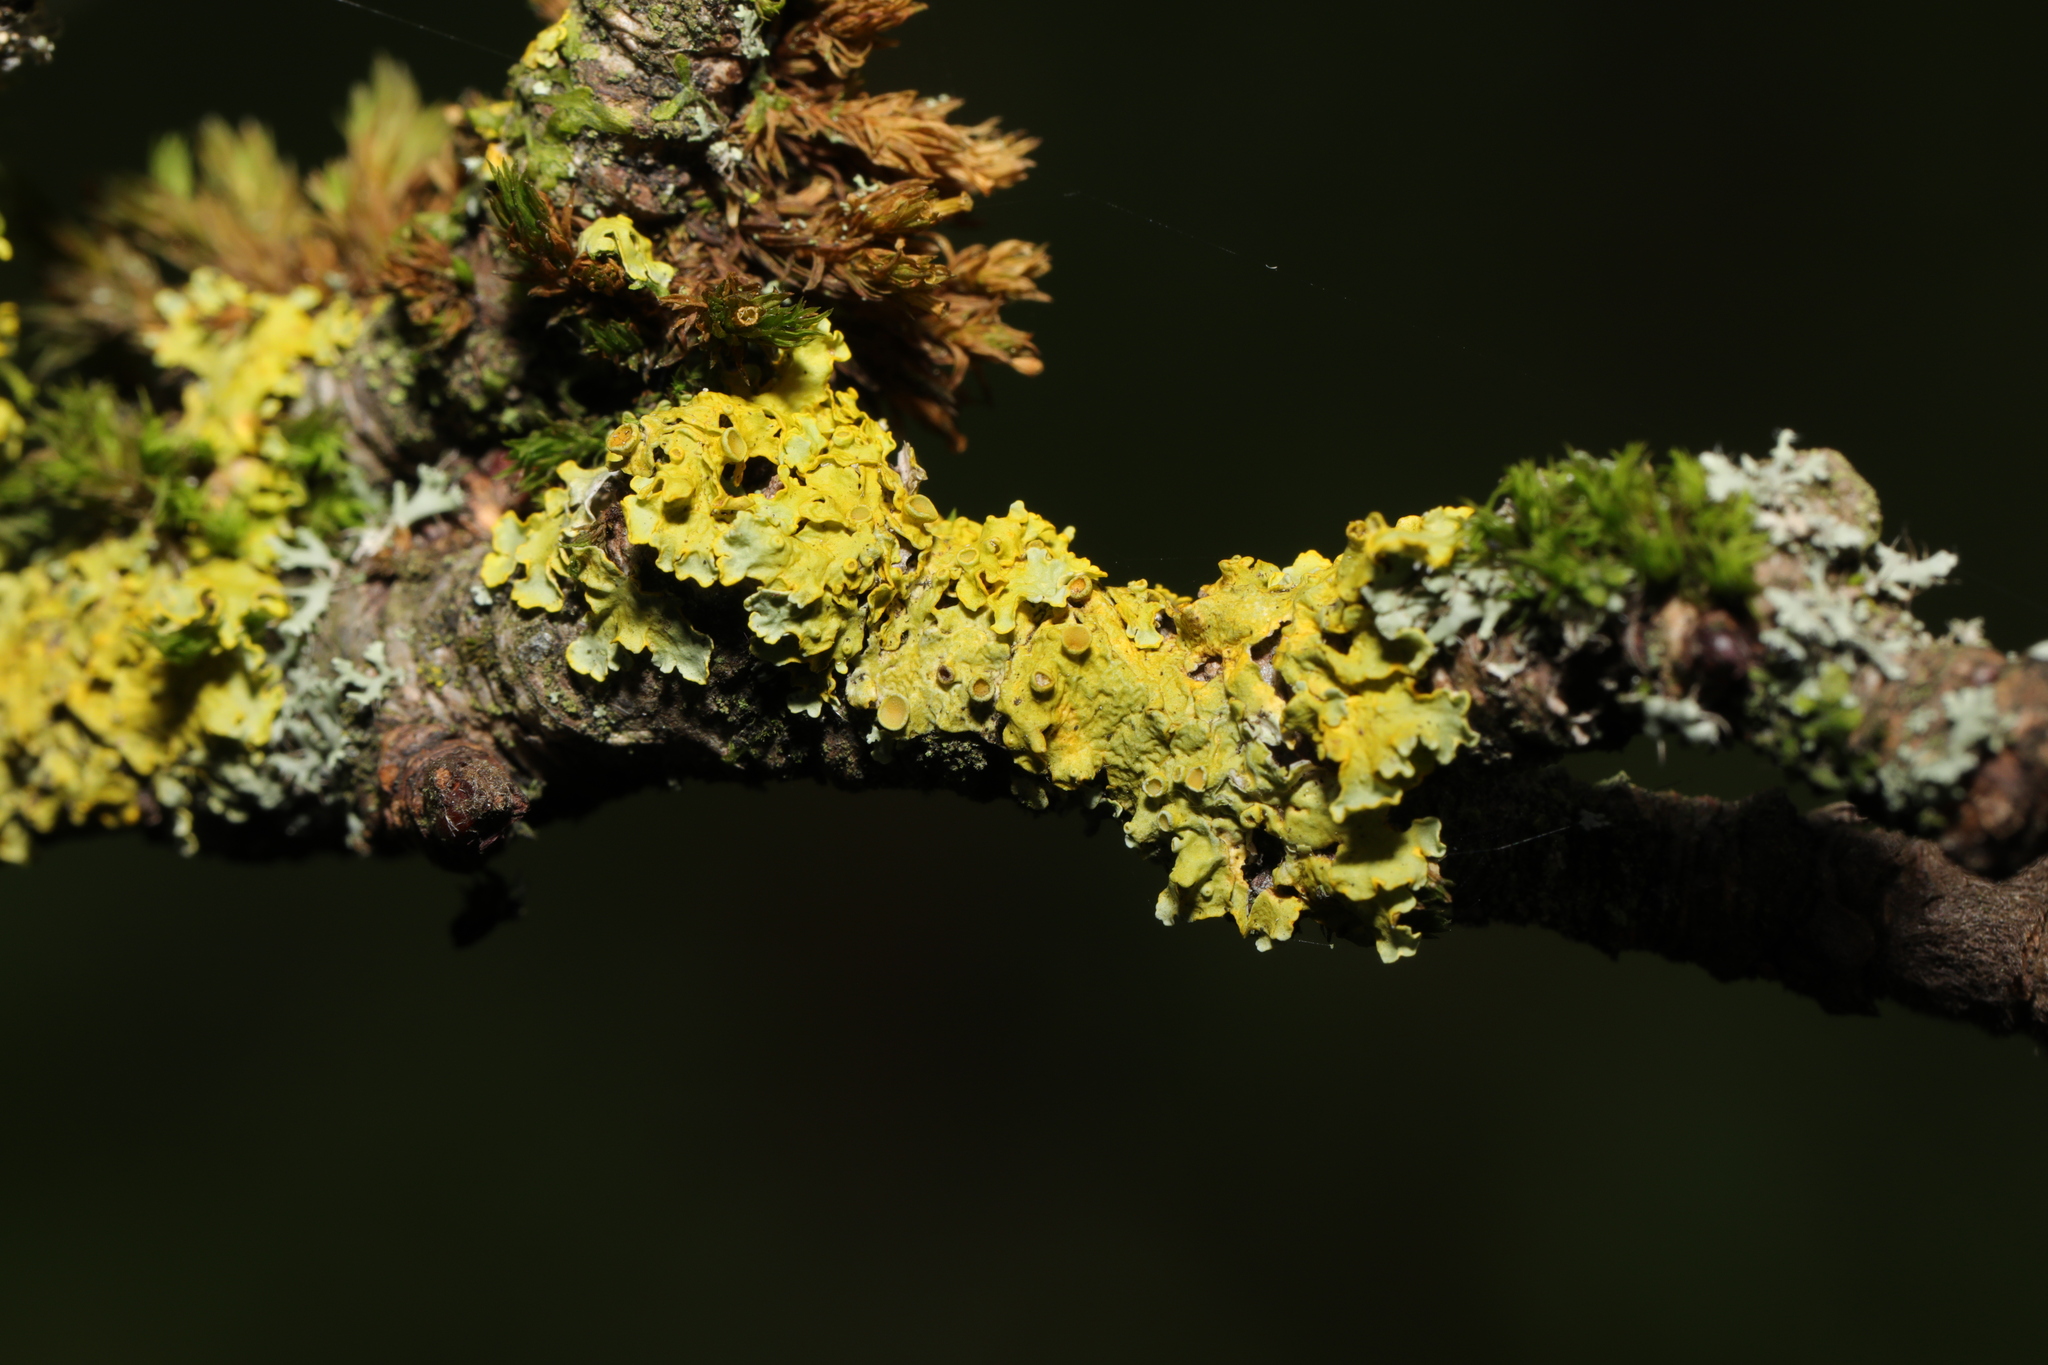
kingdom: Fungi
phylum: Ascomycota
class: Lecanoromycetes
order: Teloschistales
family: Teloschistaceae
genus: Xanthoria
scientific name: Xanthoria parietina
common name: Common orange lichen
